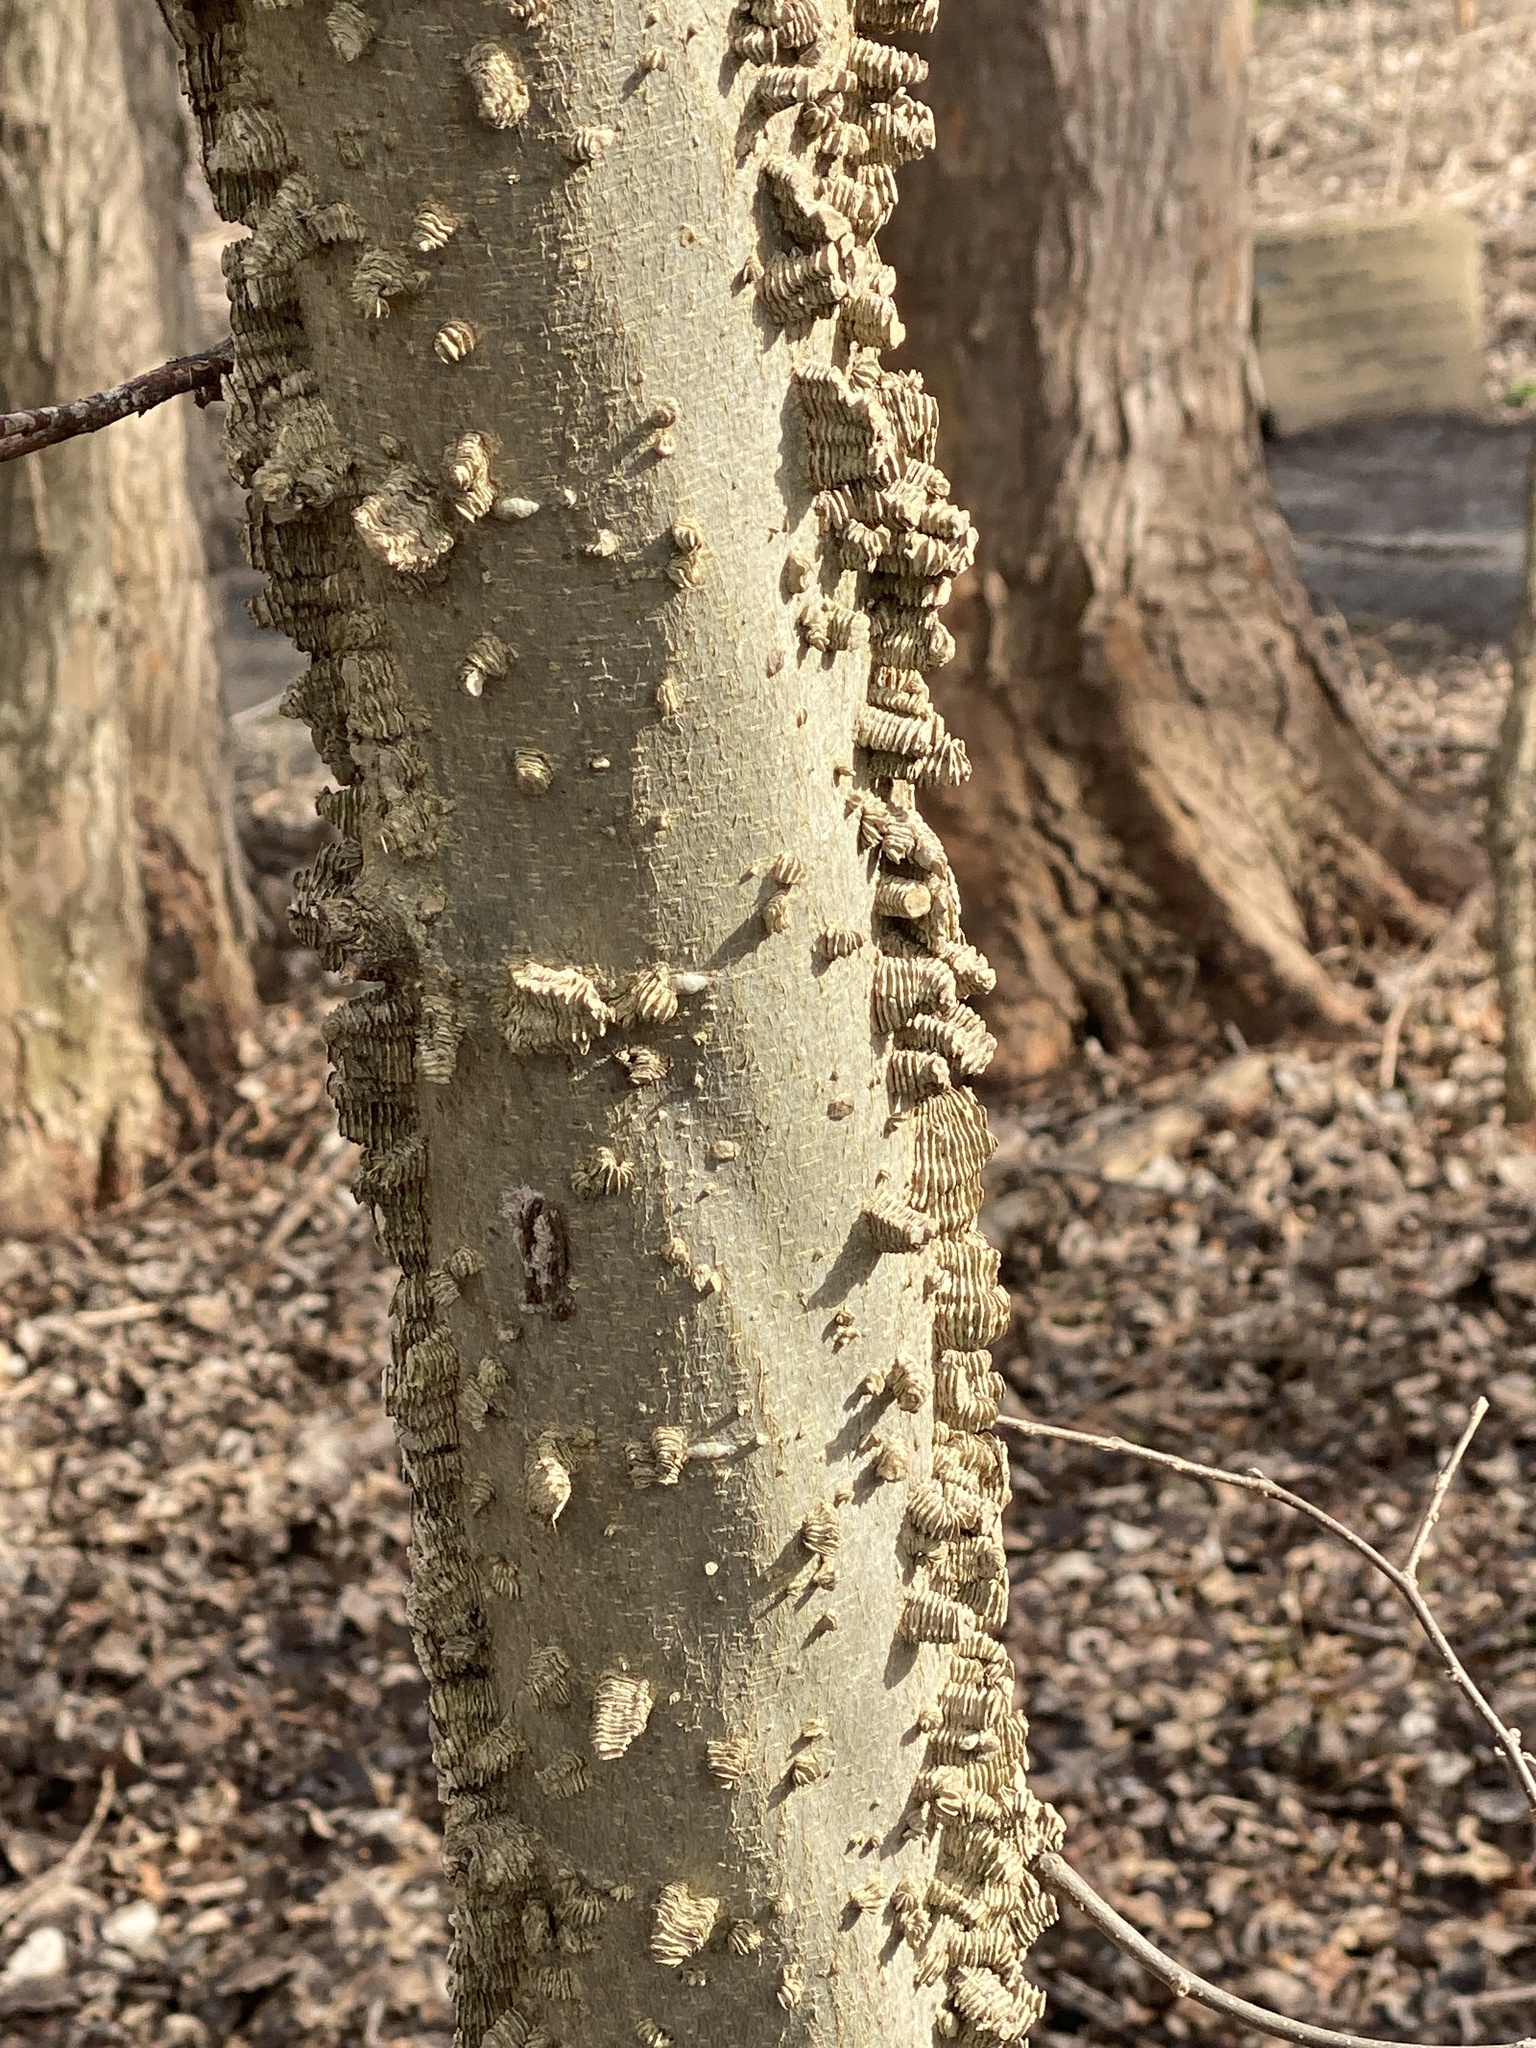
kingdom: Plantae
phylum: Tracheophyta
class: Magnoliopsida
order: Rosales
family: Cannabaceae
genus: Celtis
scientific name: Celtis occidentalis
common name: Common hackberry
